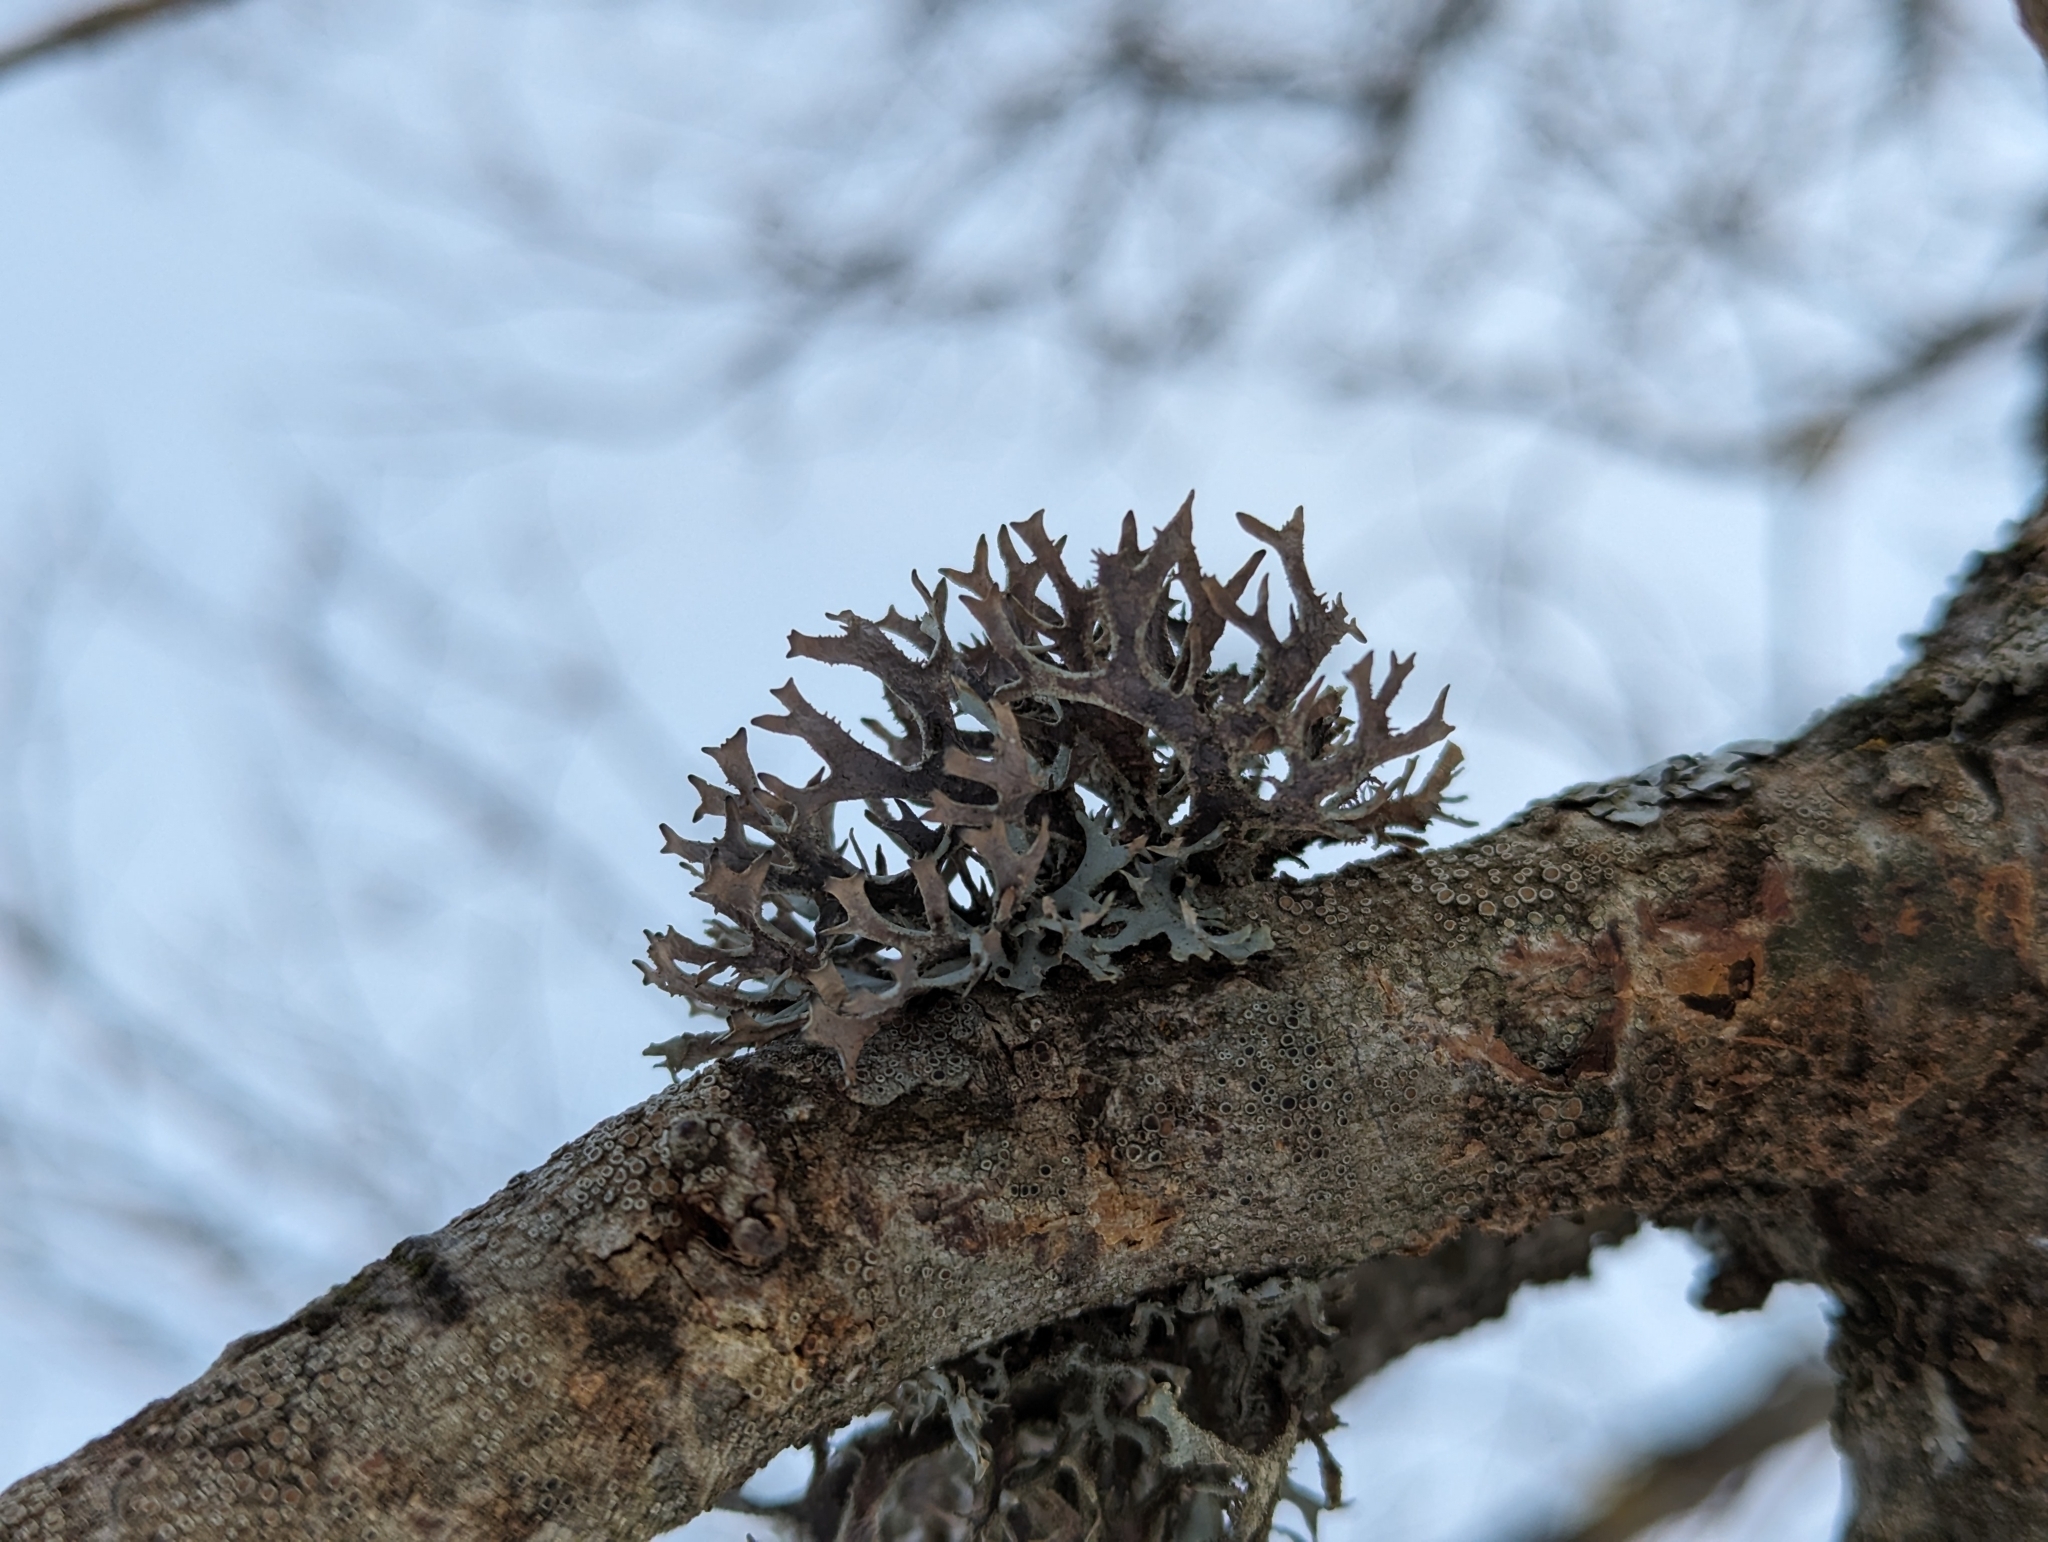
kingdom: Fungi
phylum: Ascomycota
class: Lecanoromycetes
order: Lecanorales
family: Parmeliaceae
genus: Pseudevernia
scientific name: Pseudevernia furfuracea
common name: Tree moss
